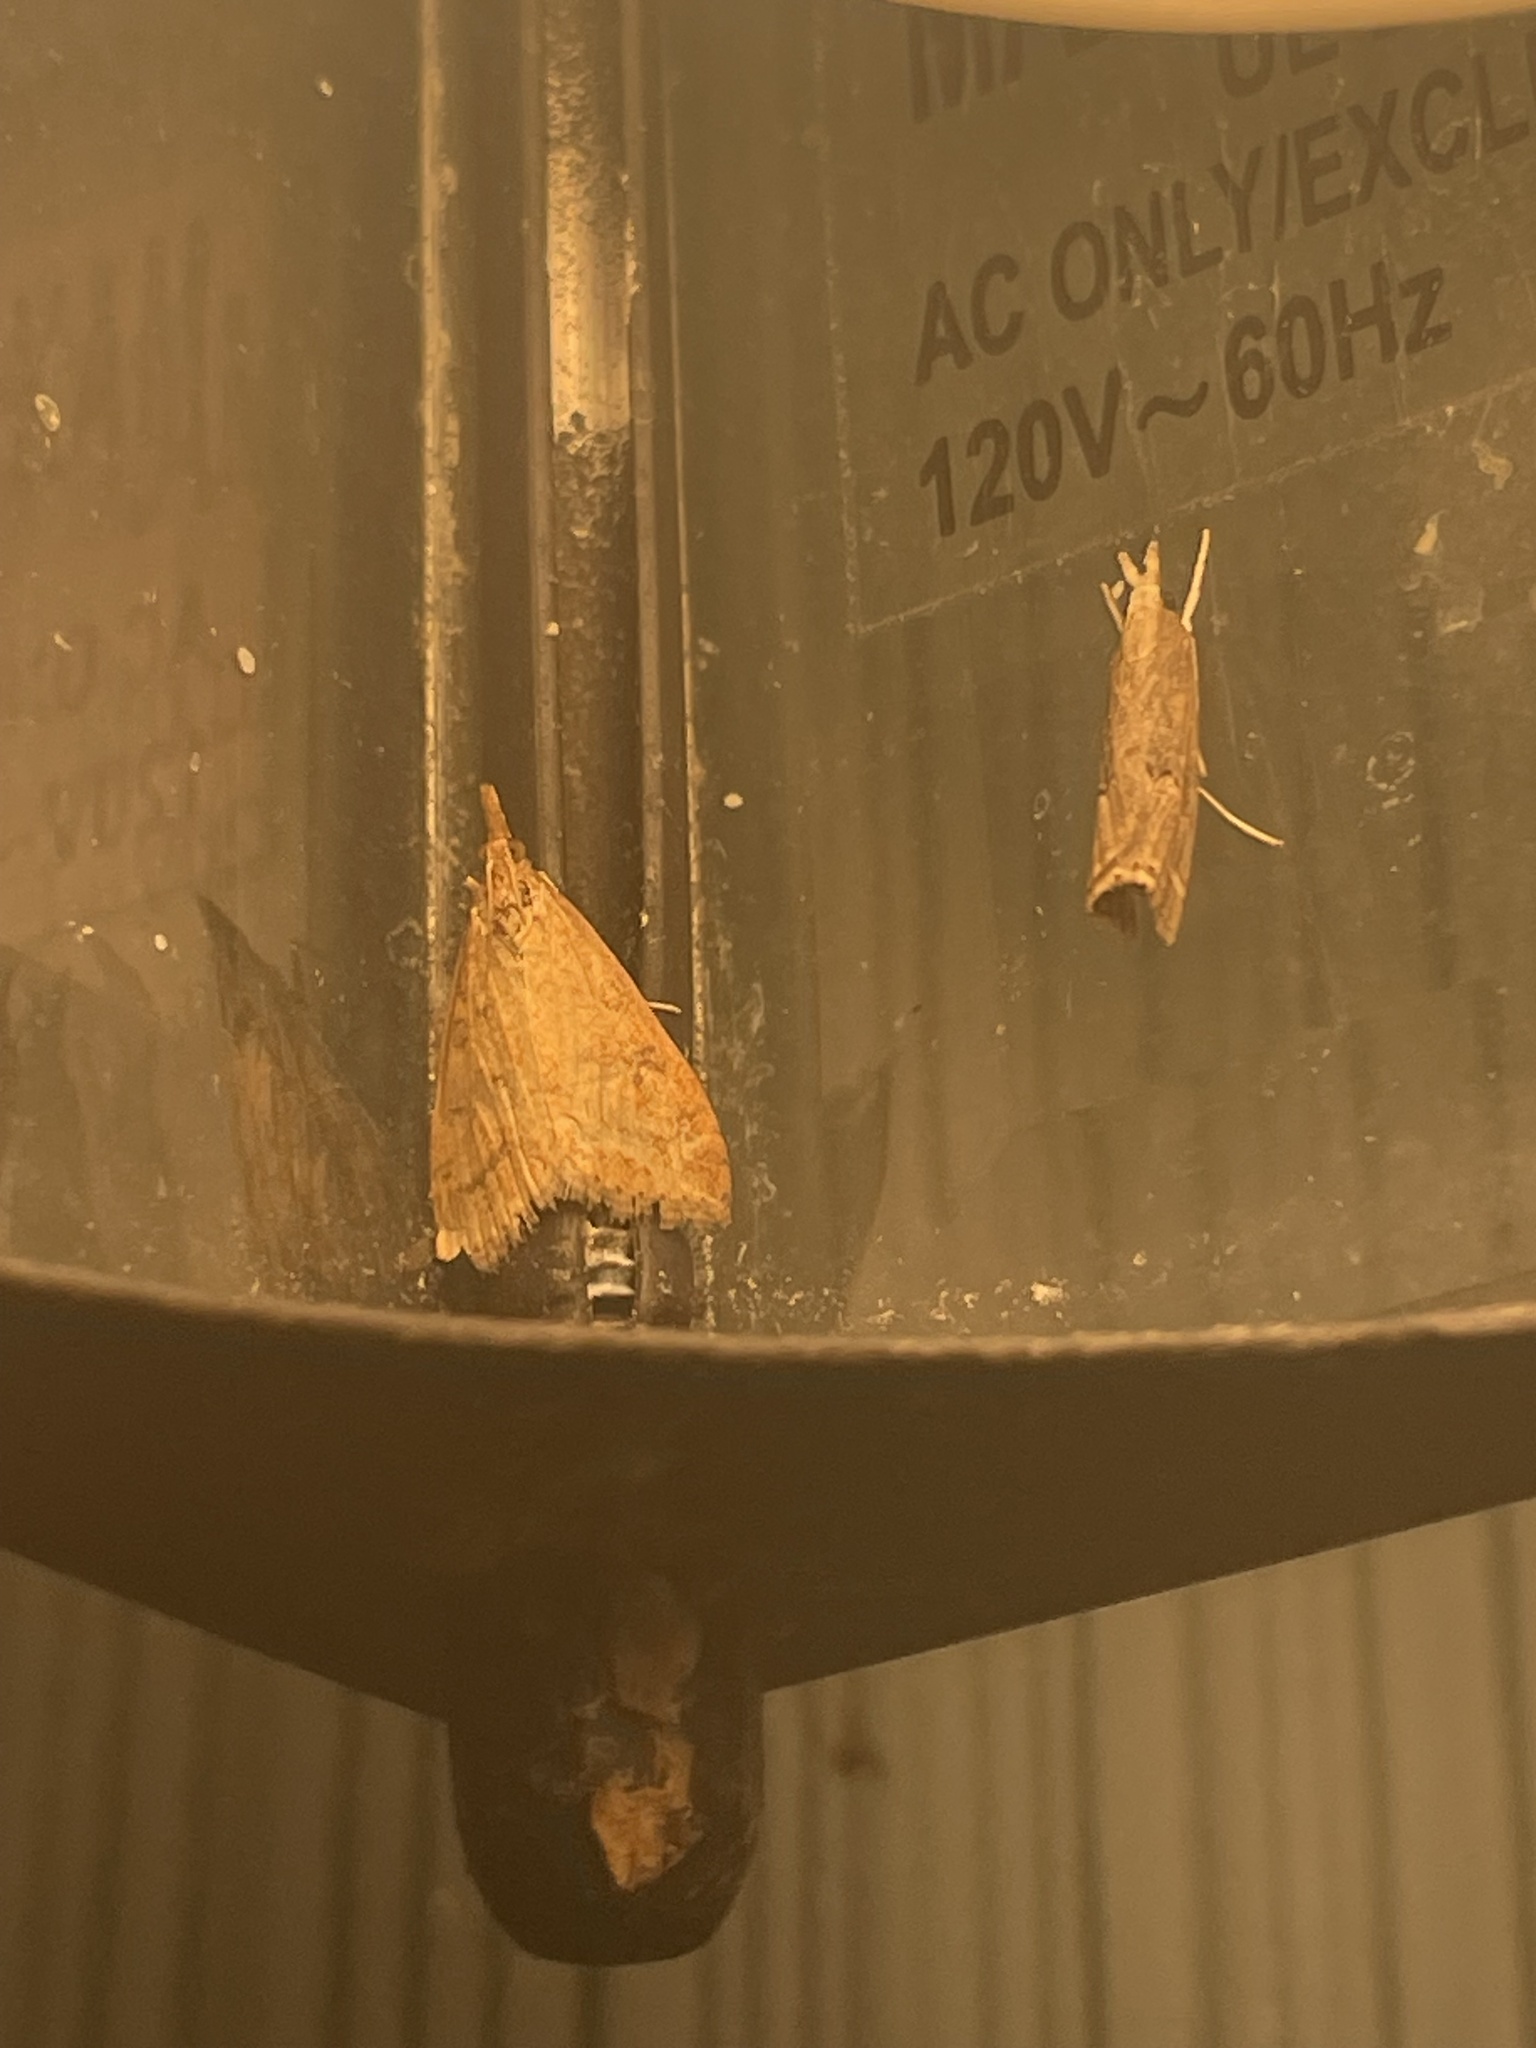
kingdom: Animalia
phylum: Arthropoda
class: Insecta
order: Lepidoptera
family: Crambidae
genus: Udea
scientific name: Udea rubigalis
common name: Celery leaftier moth
